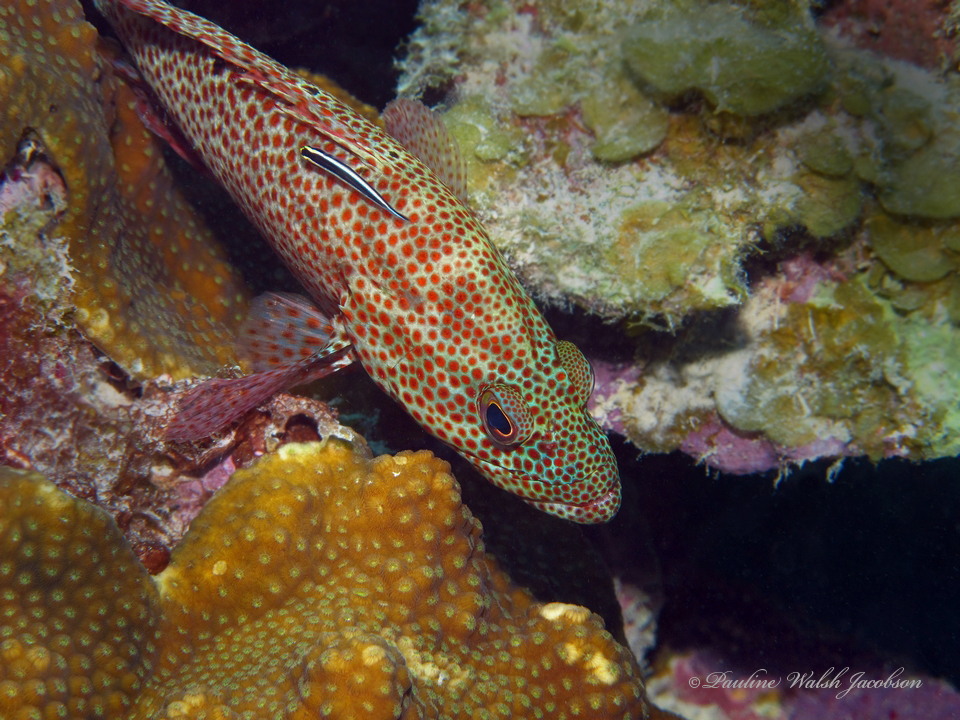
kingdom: Animalia
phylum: Chordata
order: Perciformes
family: Serranidae
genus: Cephalopholis
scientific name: Cephalopholis cruentata
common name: Graysby
